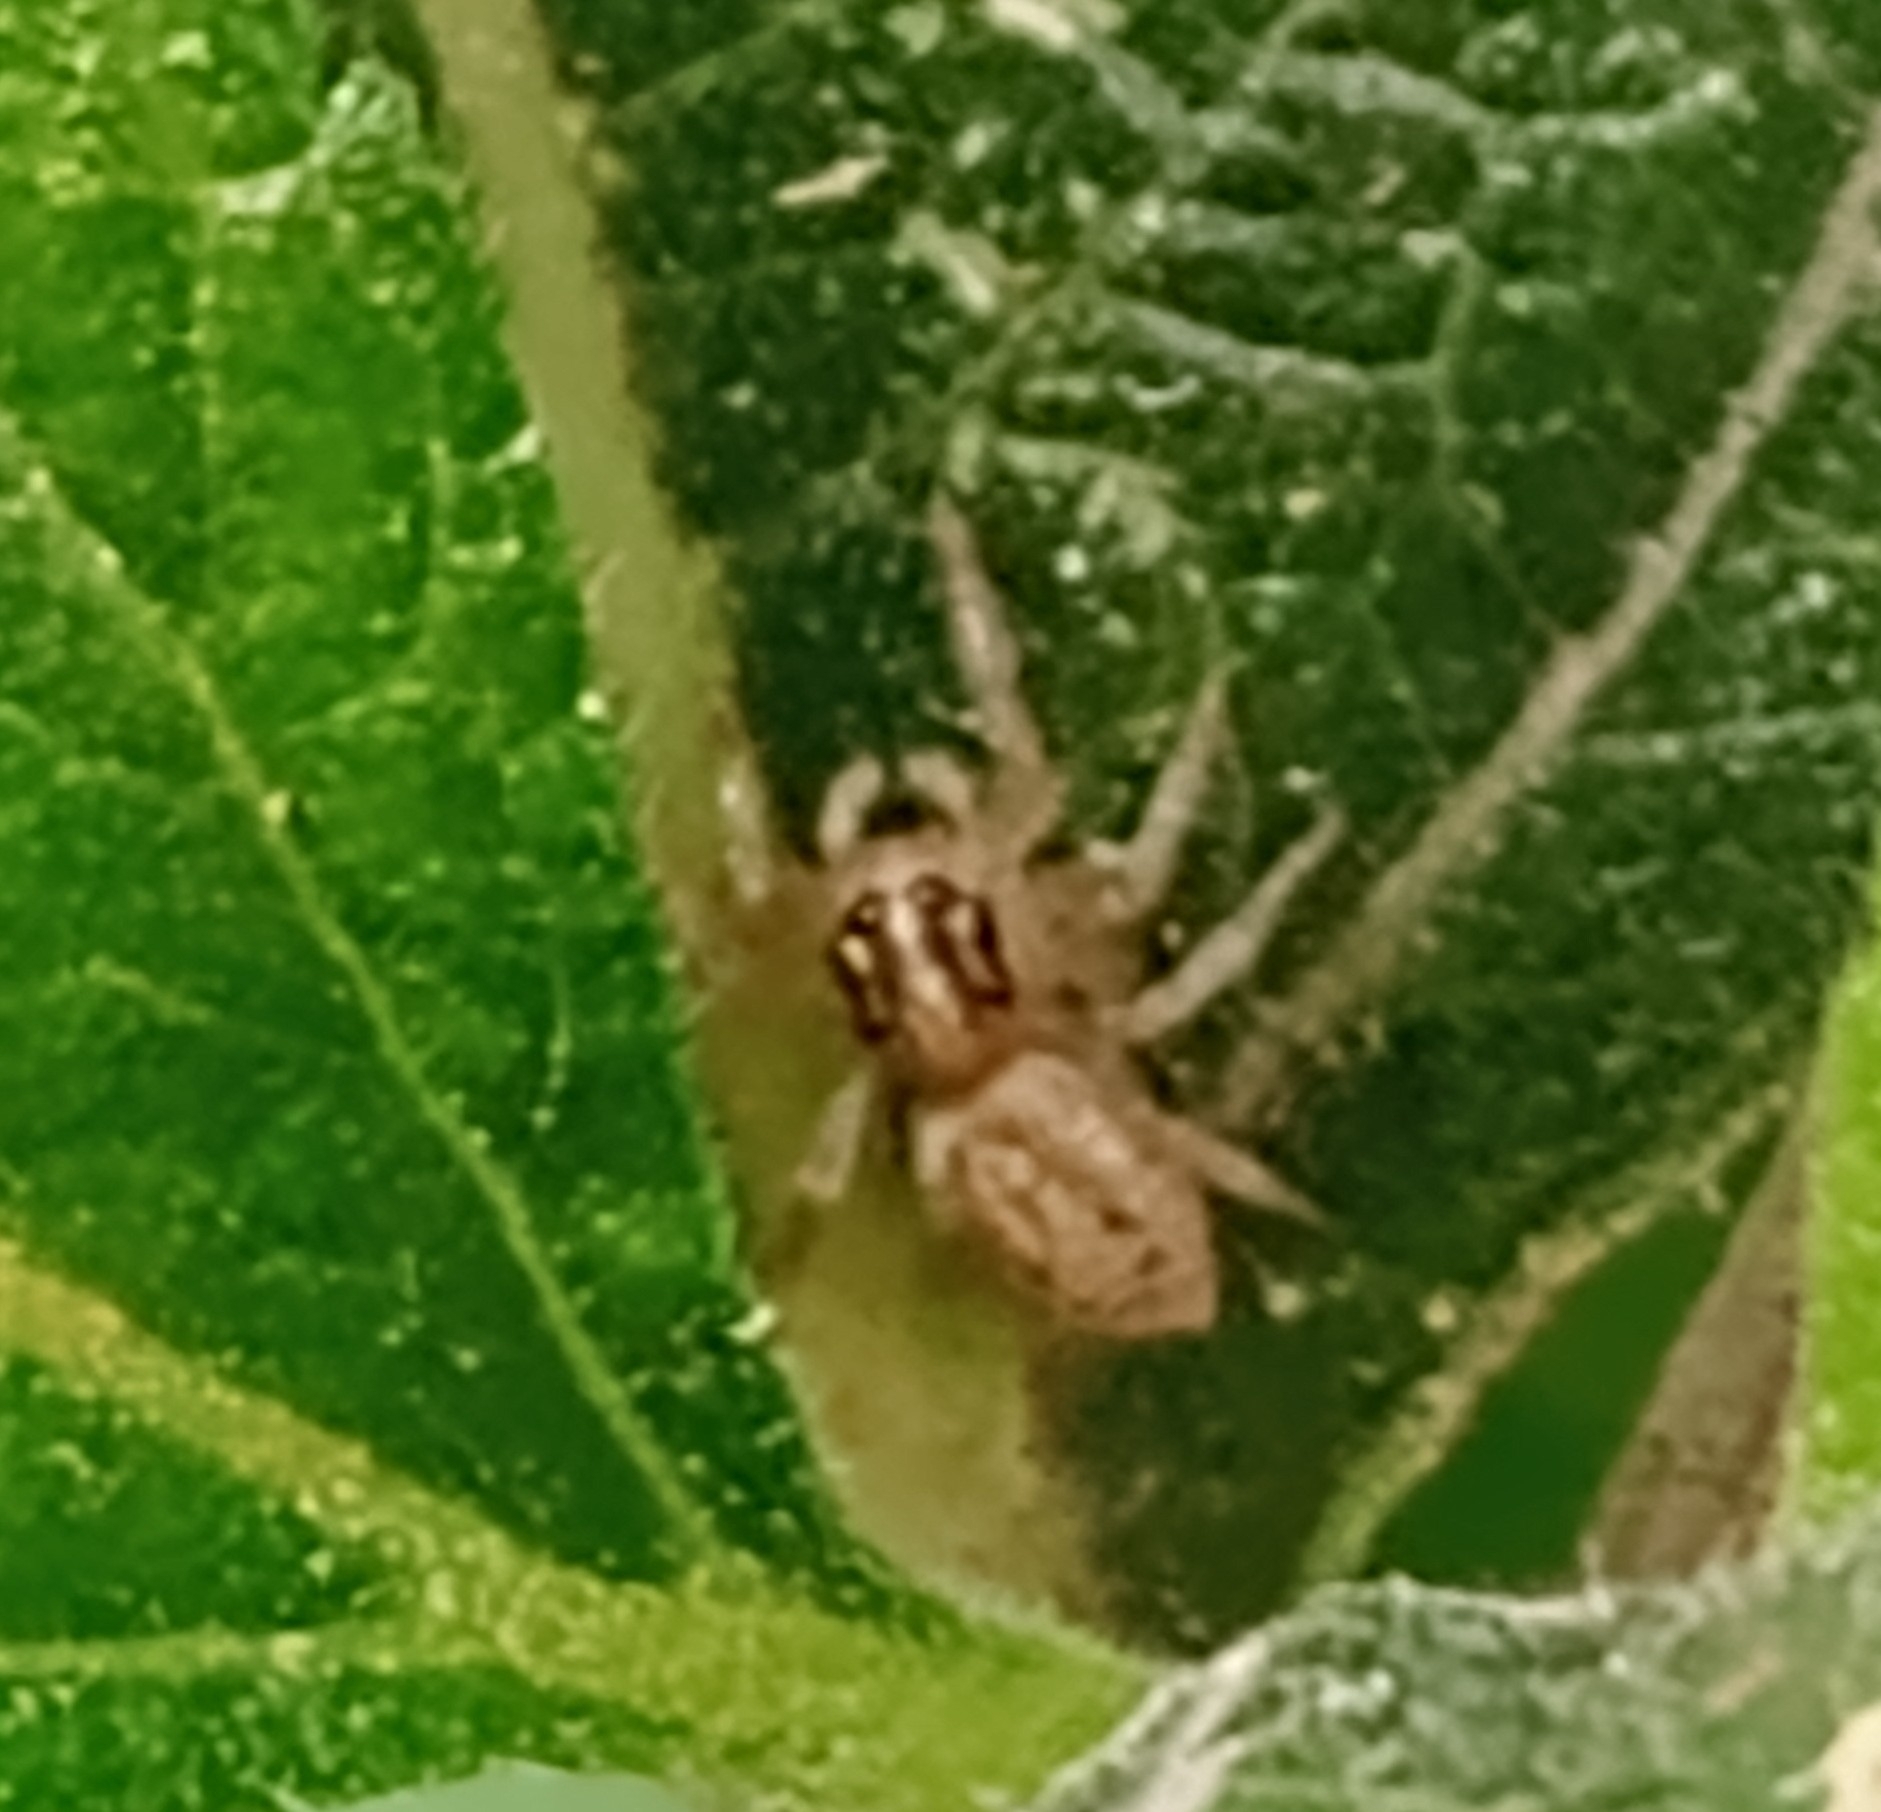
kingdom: Animalia
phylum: Arthropoda
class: Arachnida
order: Araneae
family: Salticidae
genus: Chira
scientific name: Chira gounellei
